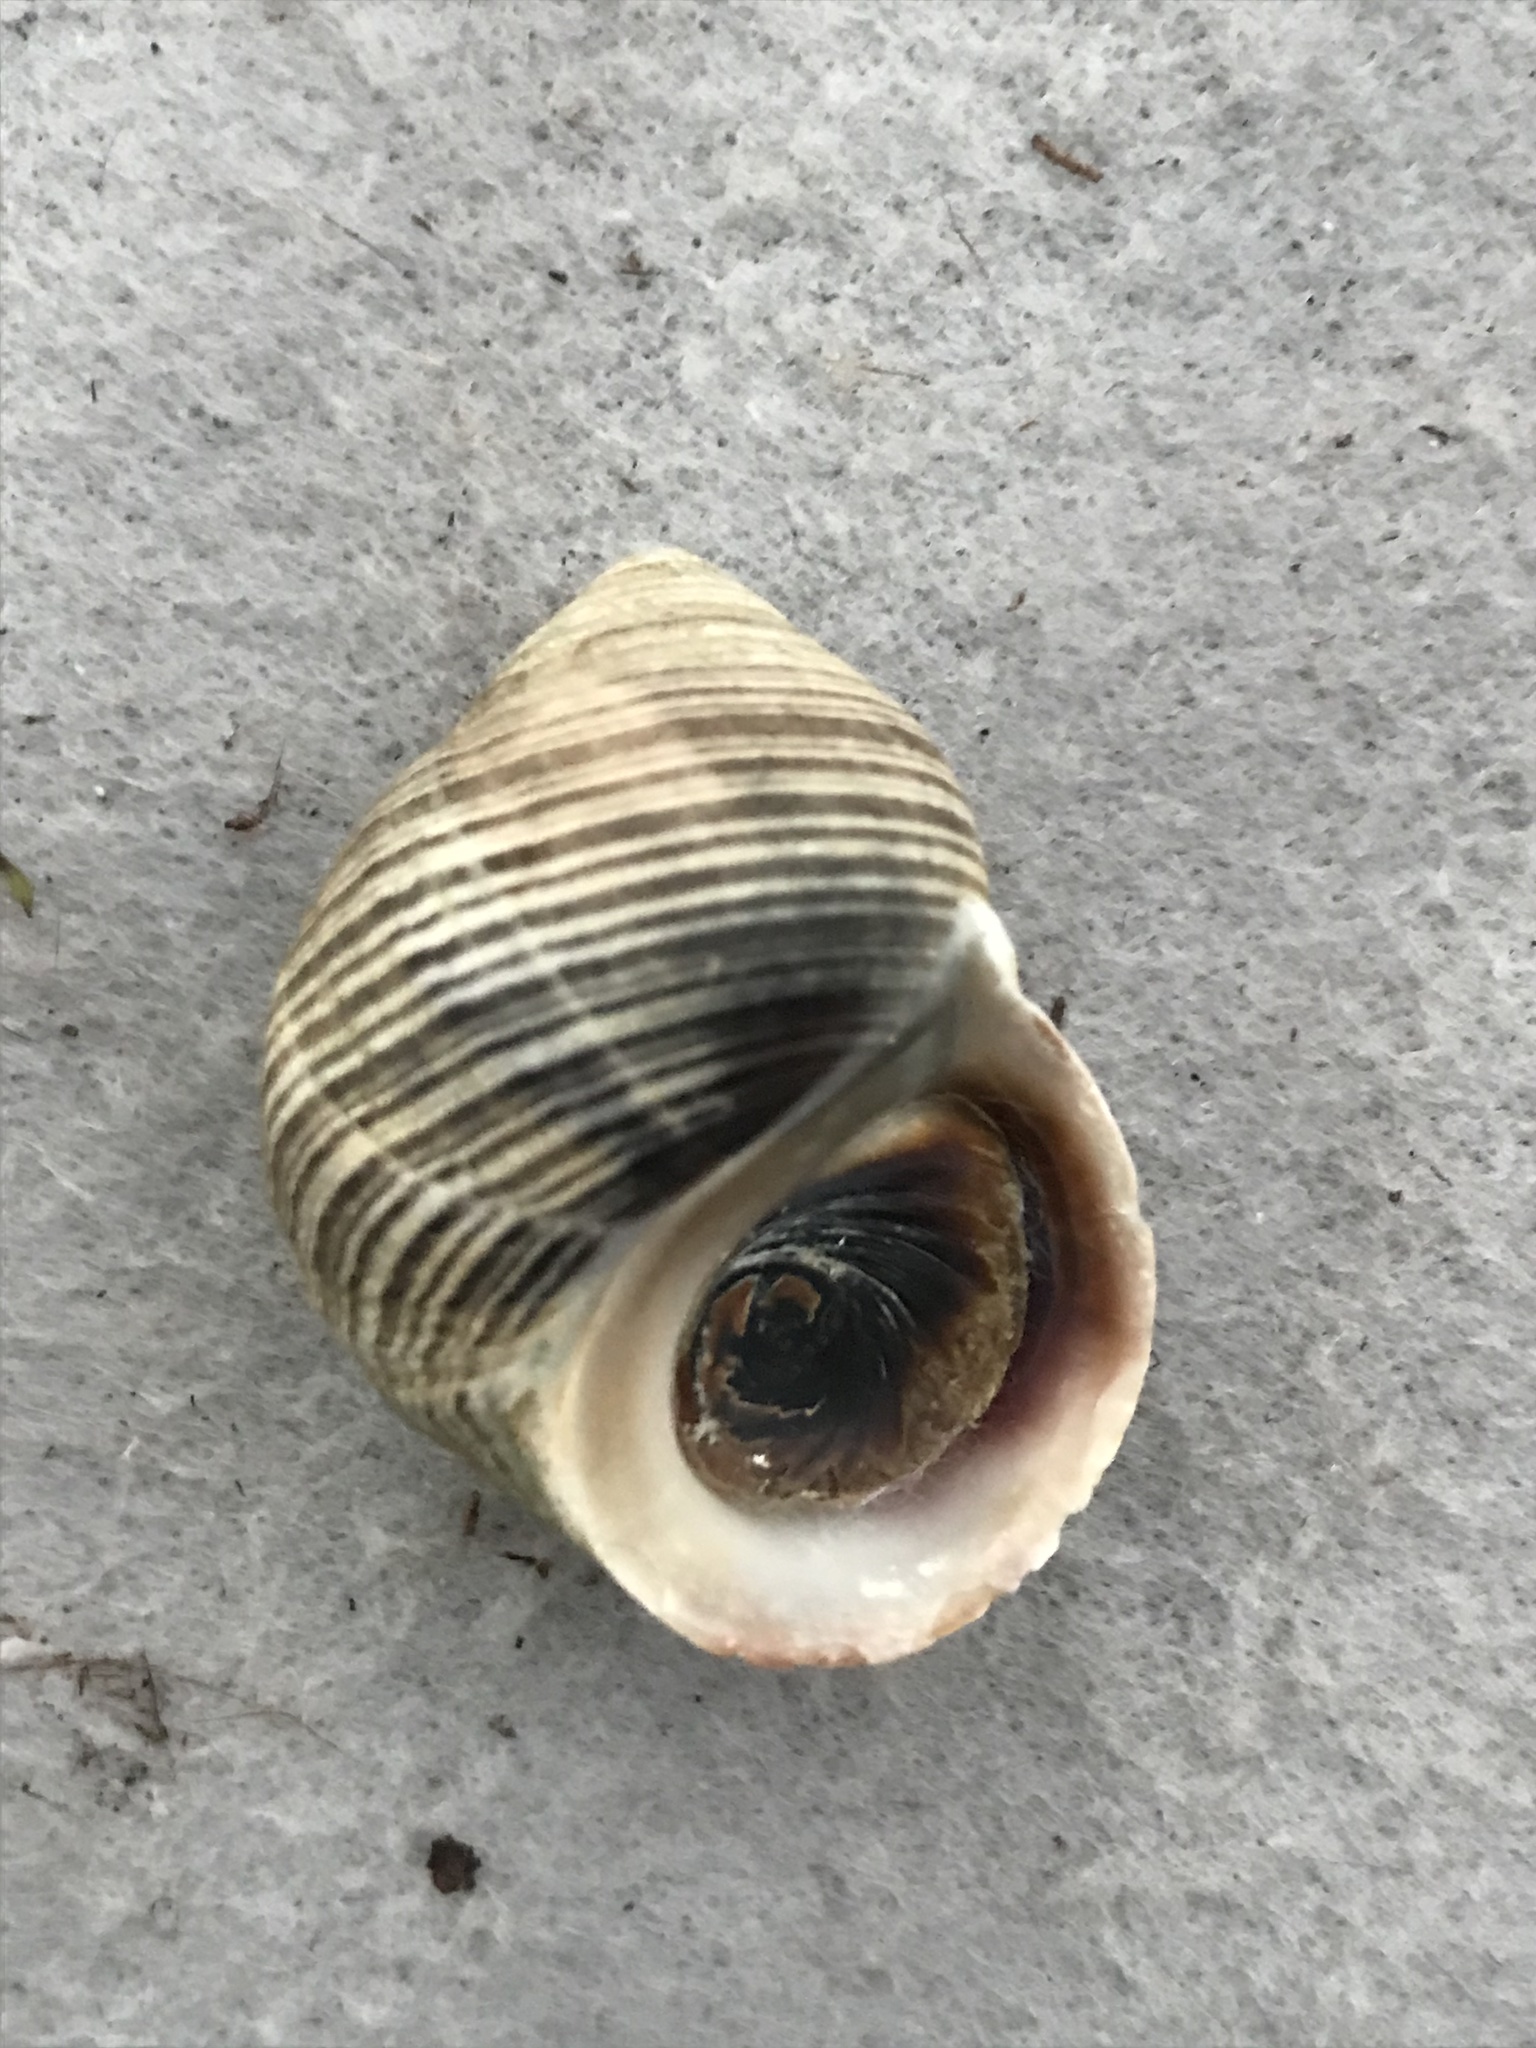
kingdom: Animalia
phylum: Mollusca
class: Gastropoda
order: Littorinimorpha
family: Littorinidae
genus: Littorina
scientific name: Littorina littorea
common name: Common periwinkle
